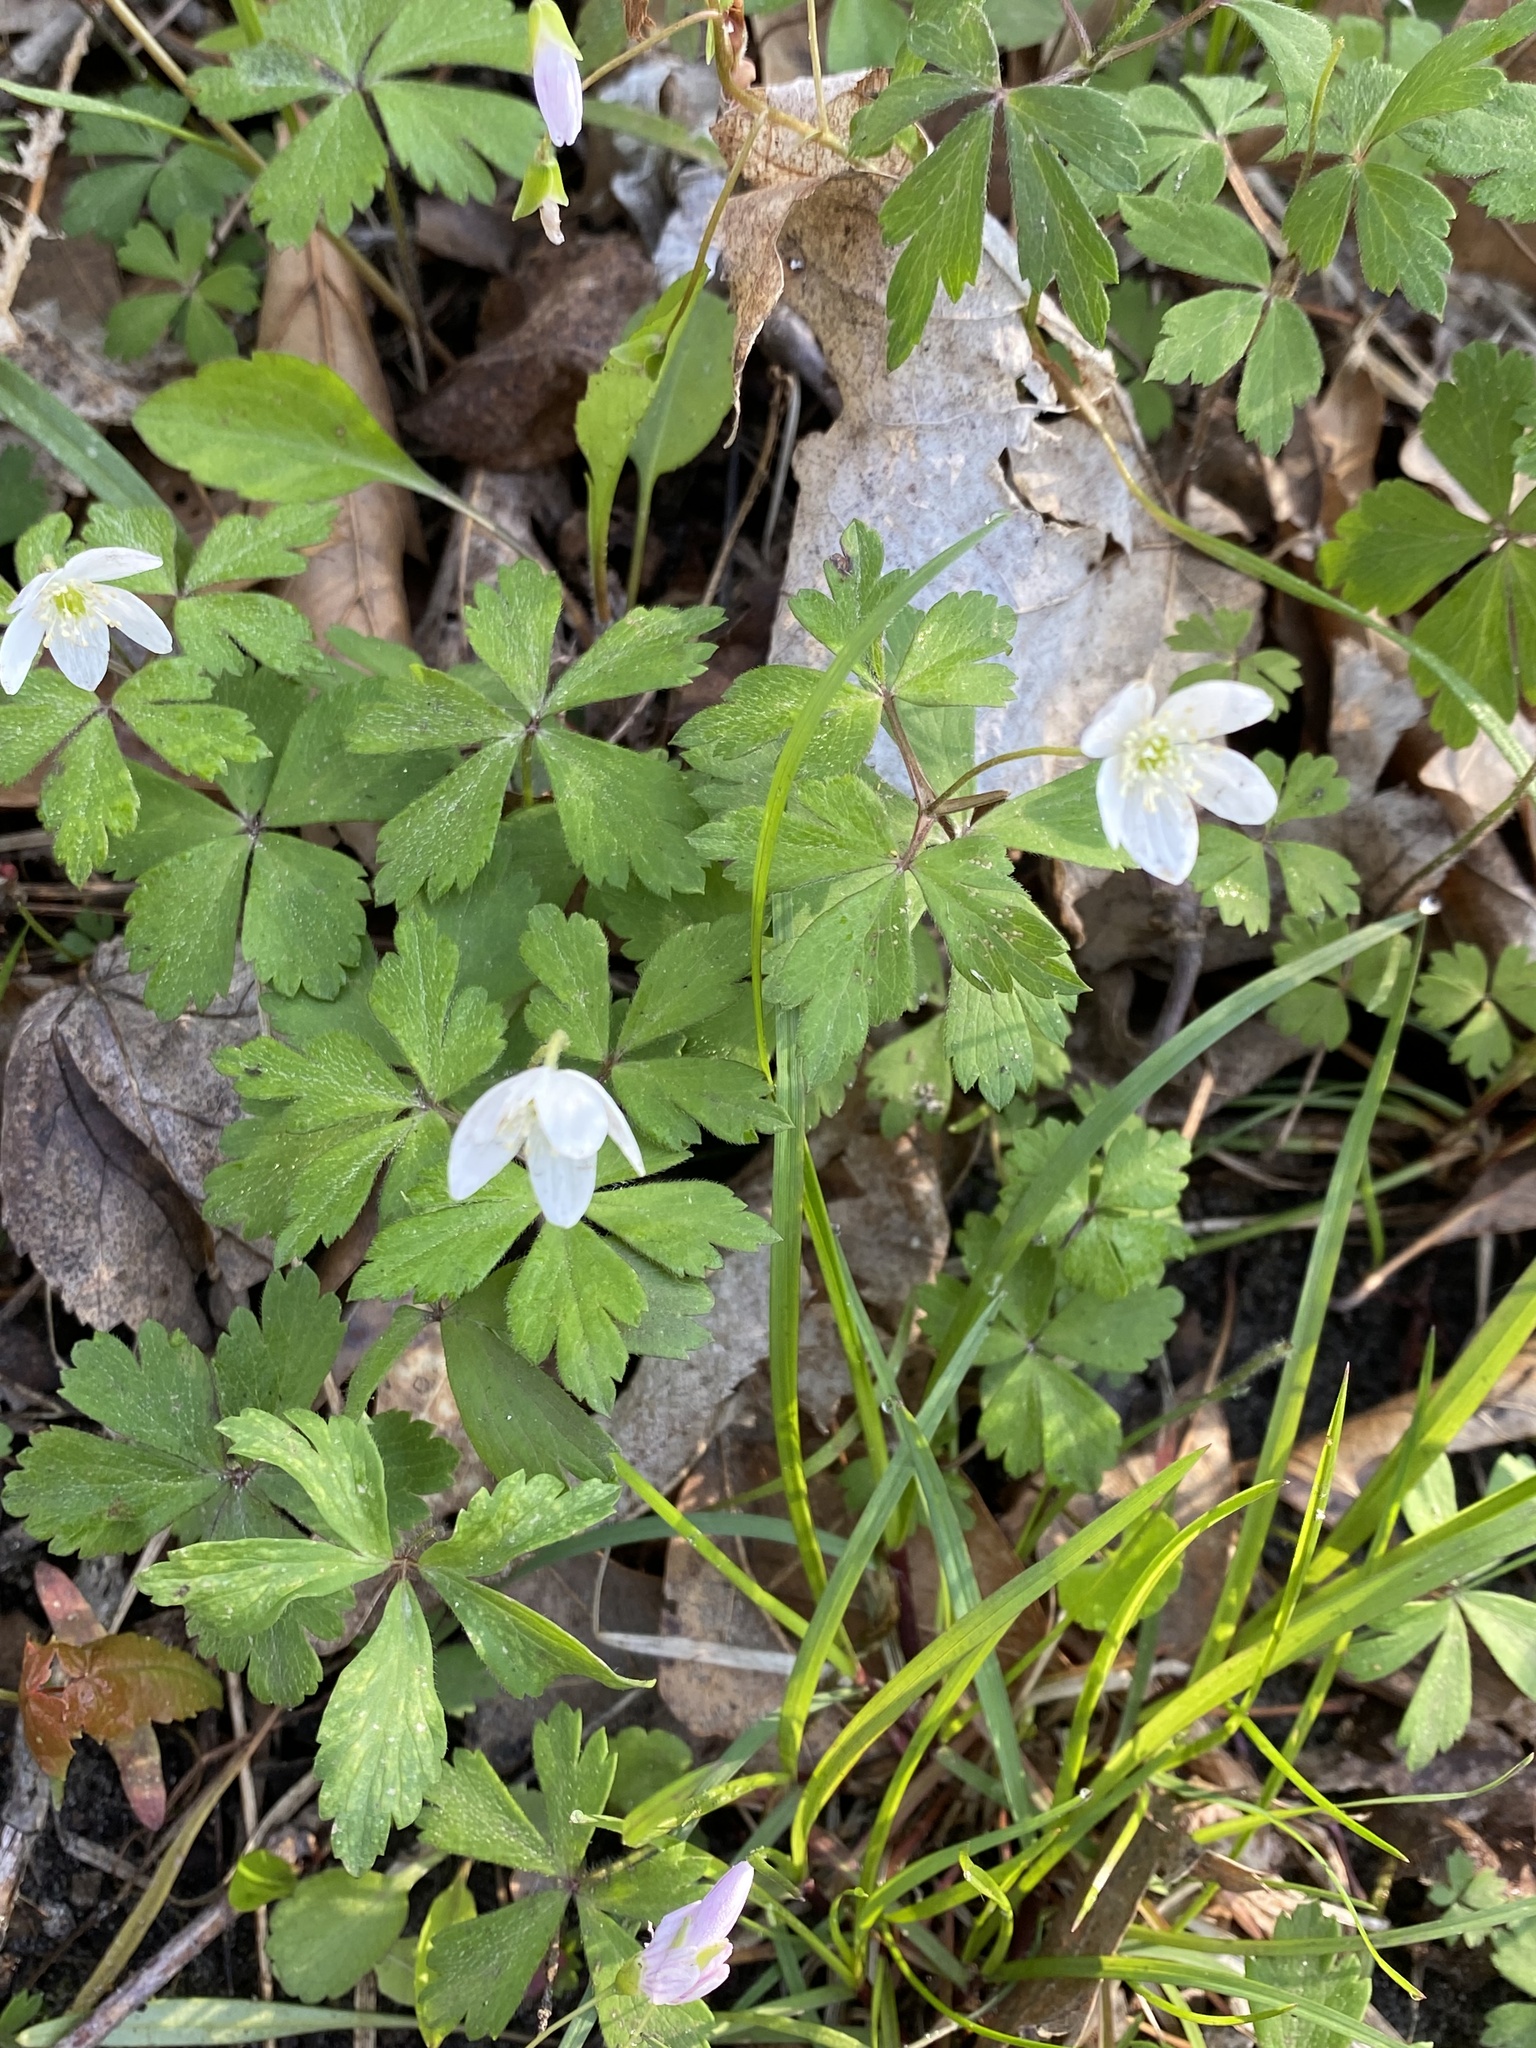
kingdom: Plantae
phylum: Tracheophyta
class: Magnoliopsida
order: Ranunculales
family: Ranunculaceae
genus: Anemone
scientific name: Anemone quinquefolia
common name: Wood anemone
